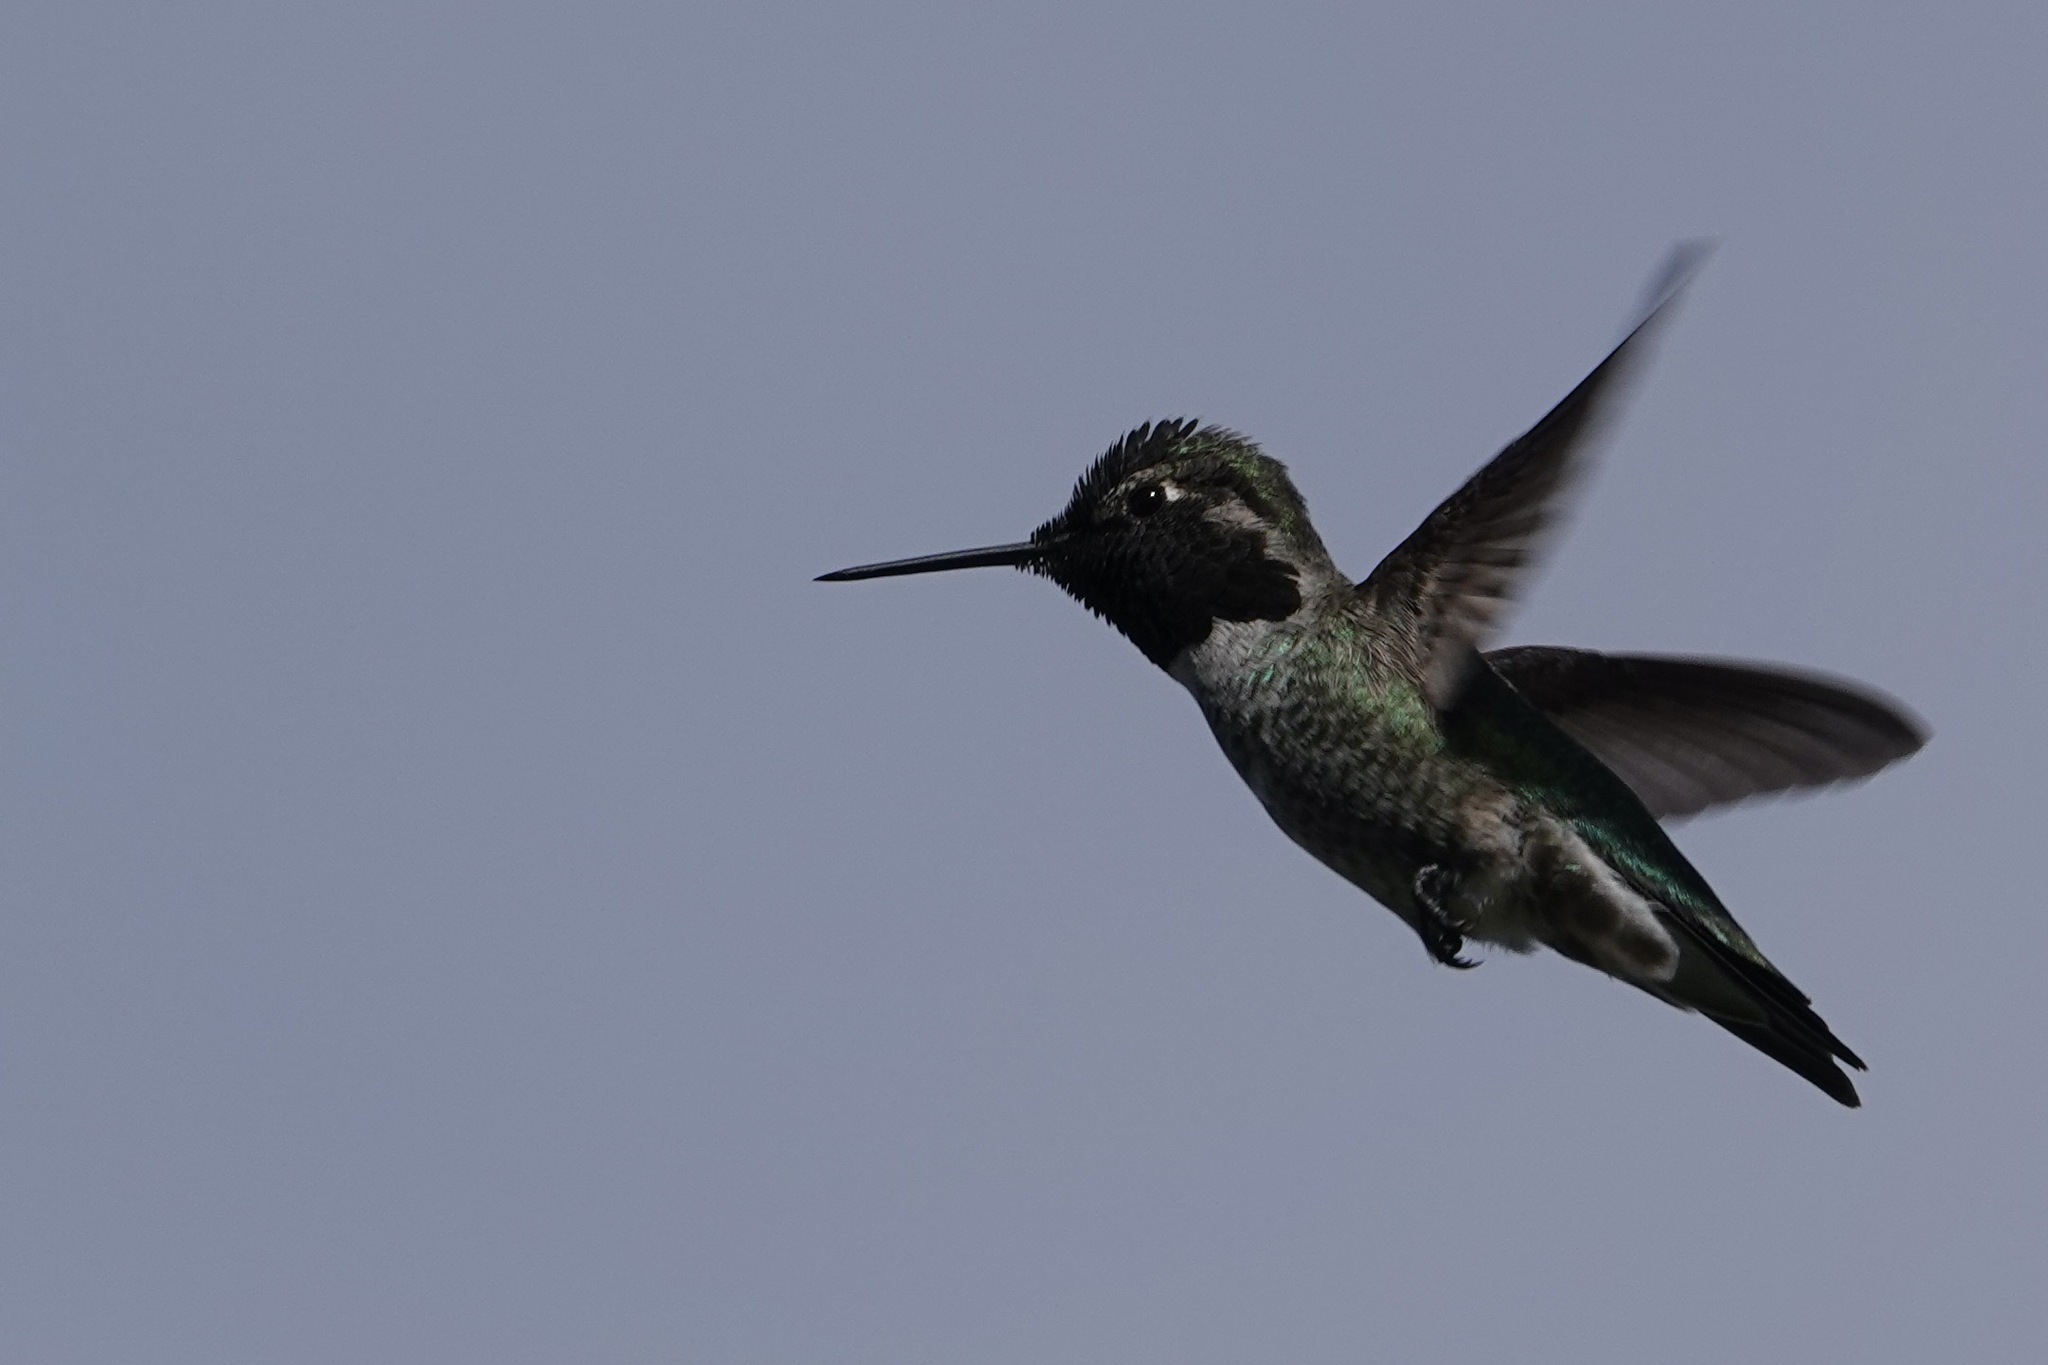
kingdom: Animalia
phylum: Chordata
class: Aves
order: Apodiformes
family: Trochilidae
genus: Calypte
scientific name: Calypte anna
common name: Anna's hummingbird
